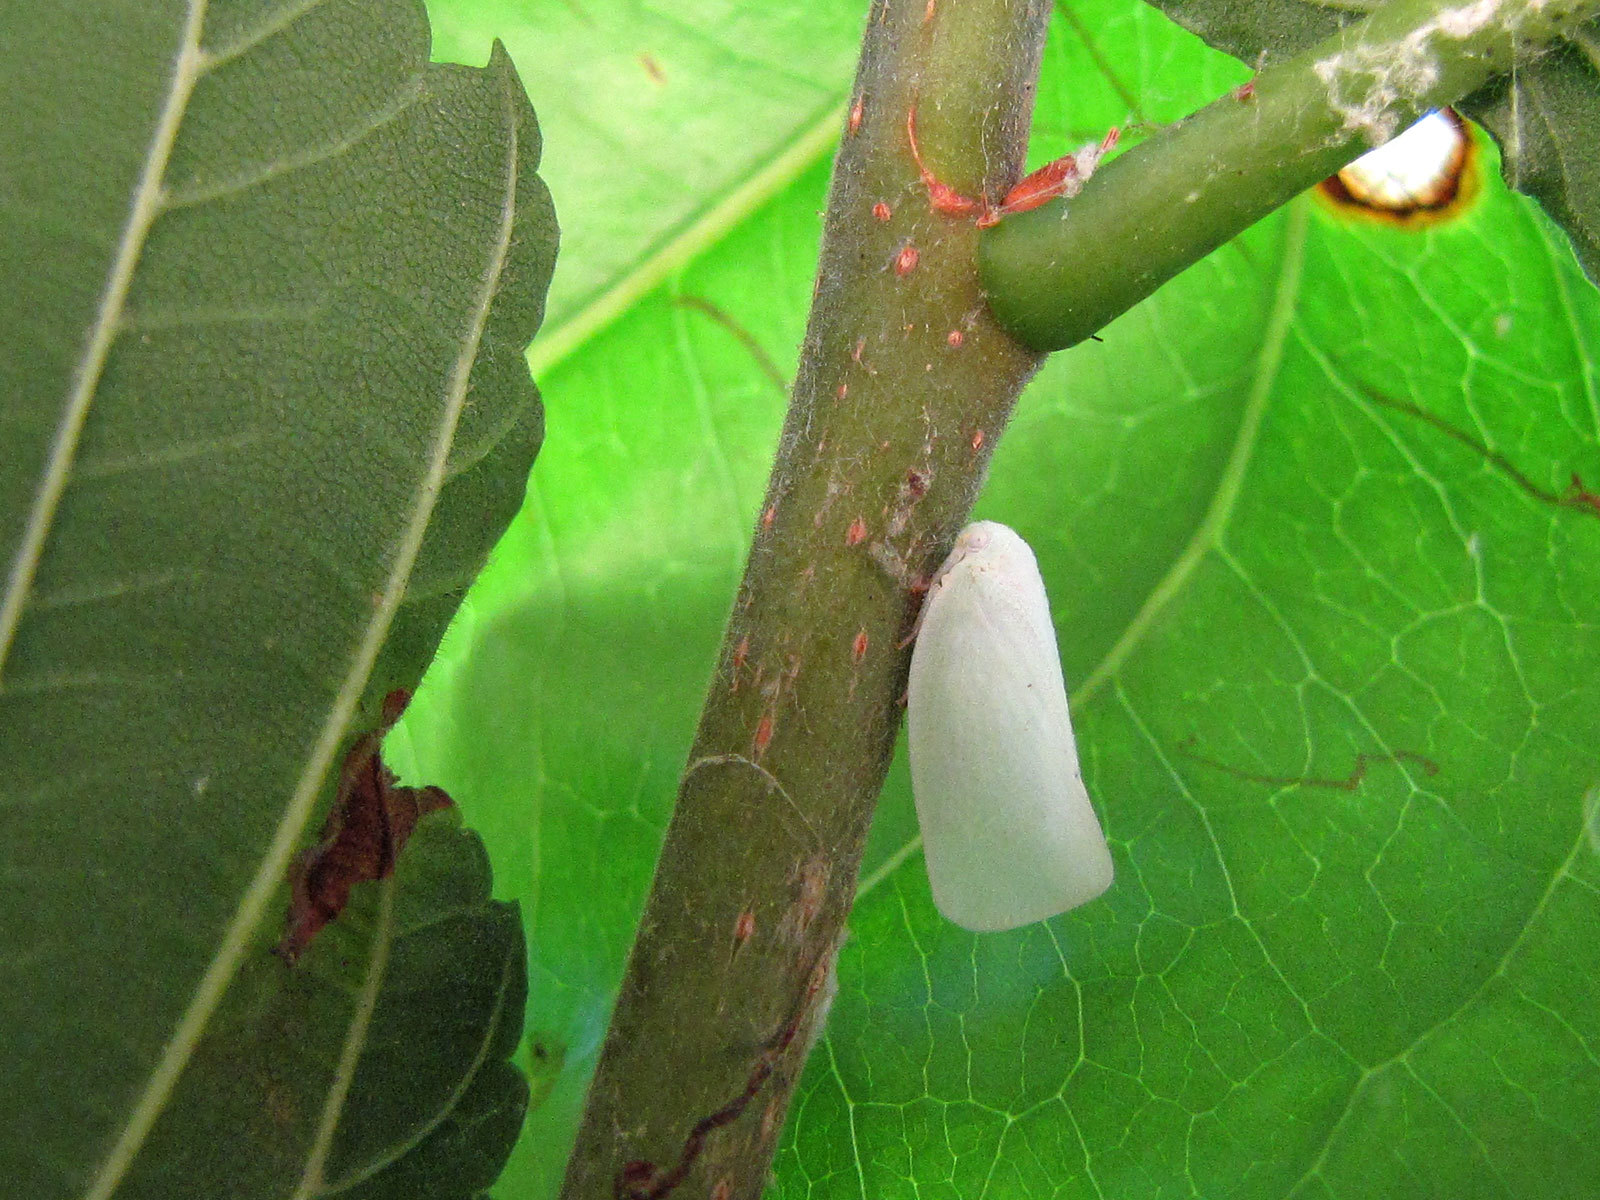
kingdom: Animalia
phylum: Arthropoda
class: Insecta
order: Hemiptera
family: Flatidae
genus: Flatormenis
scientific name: Flatormenis proxima
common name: Northern flatid planthopper
